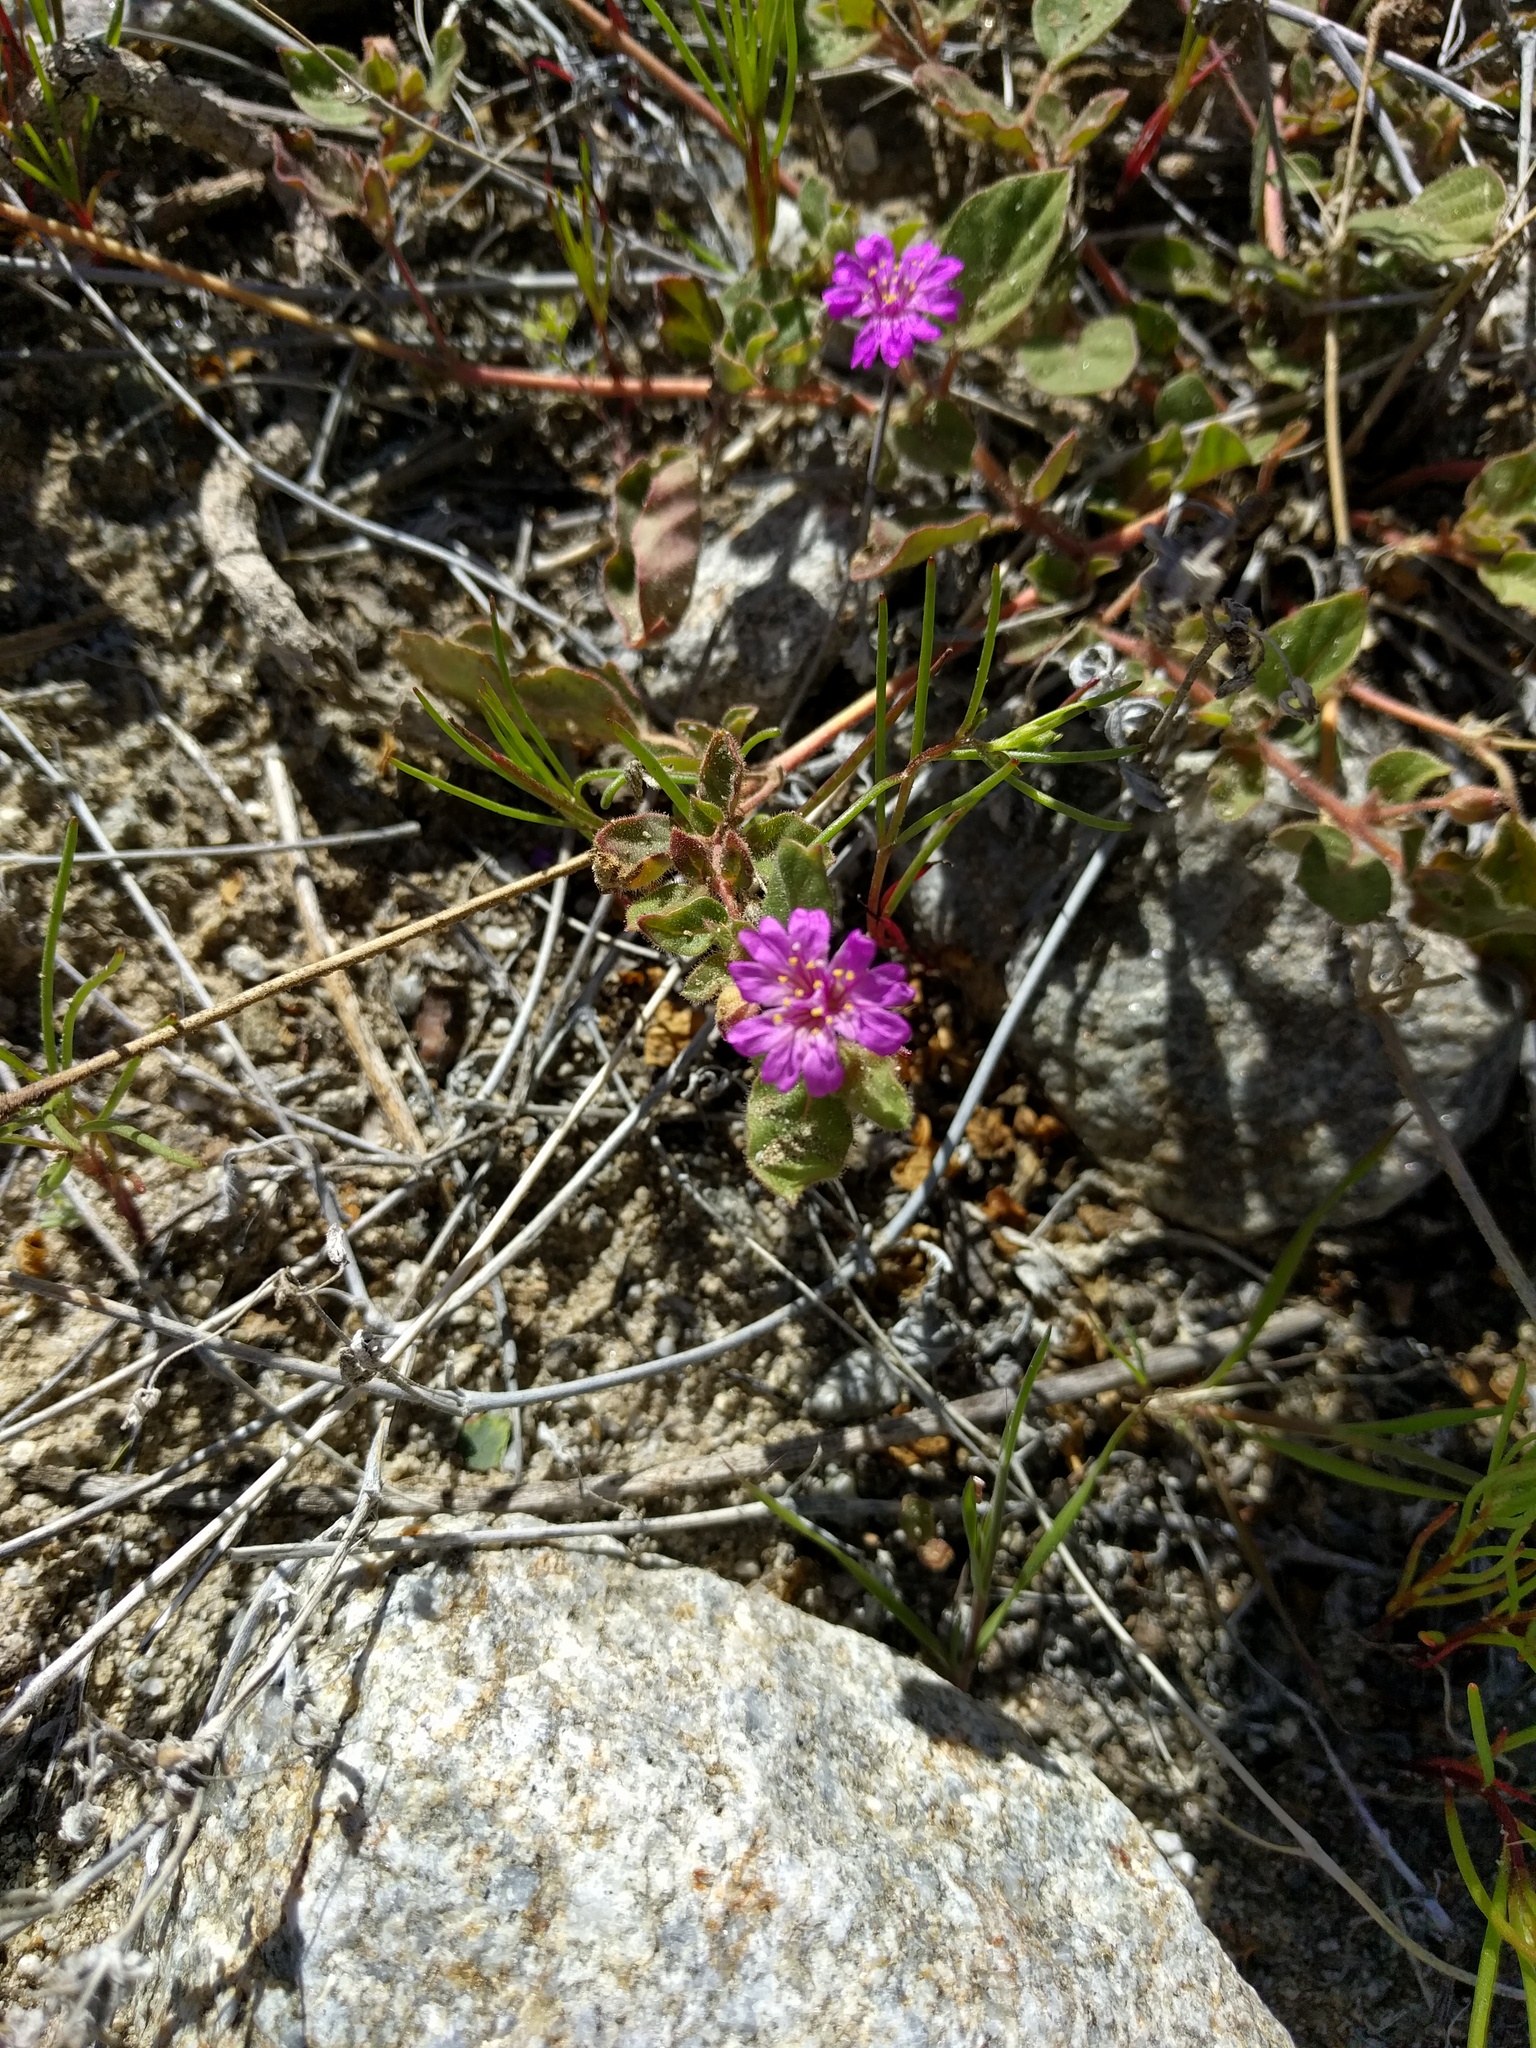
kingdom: Plantae
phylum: Tracheophyta
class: Magnoliopsida
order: Caryophyllales
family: Nyctaginaceae
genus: Allionia
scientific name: Allionia incarnata
